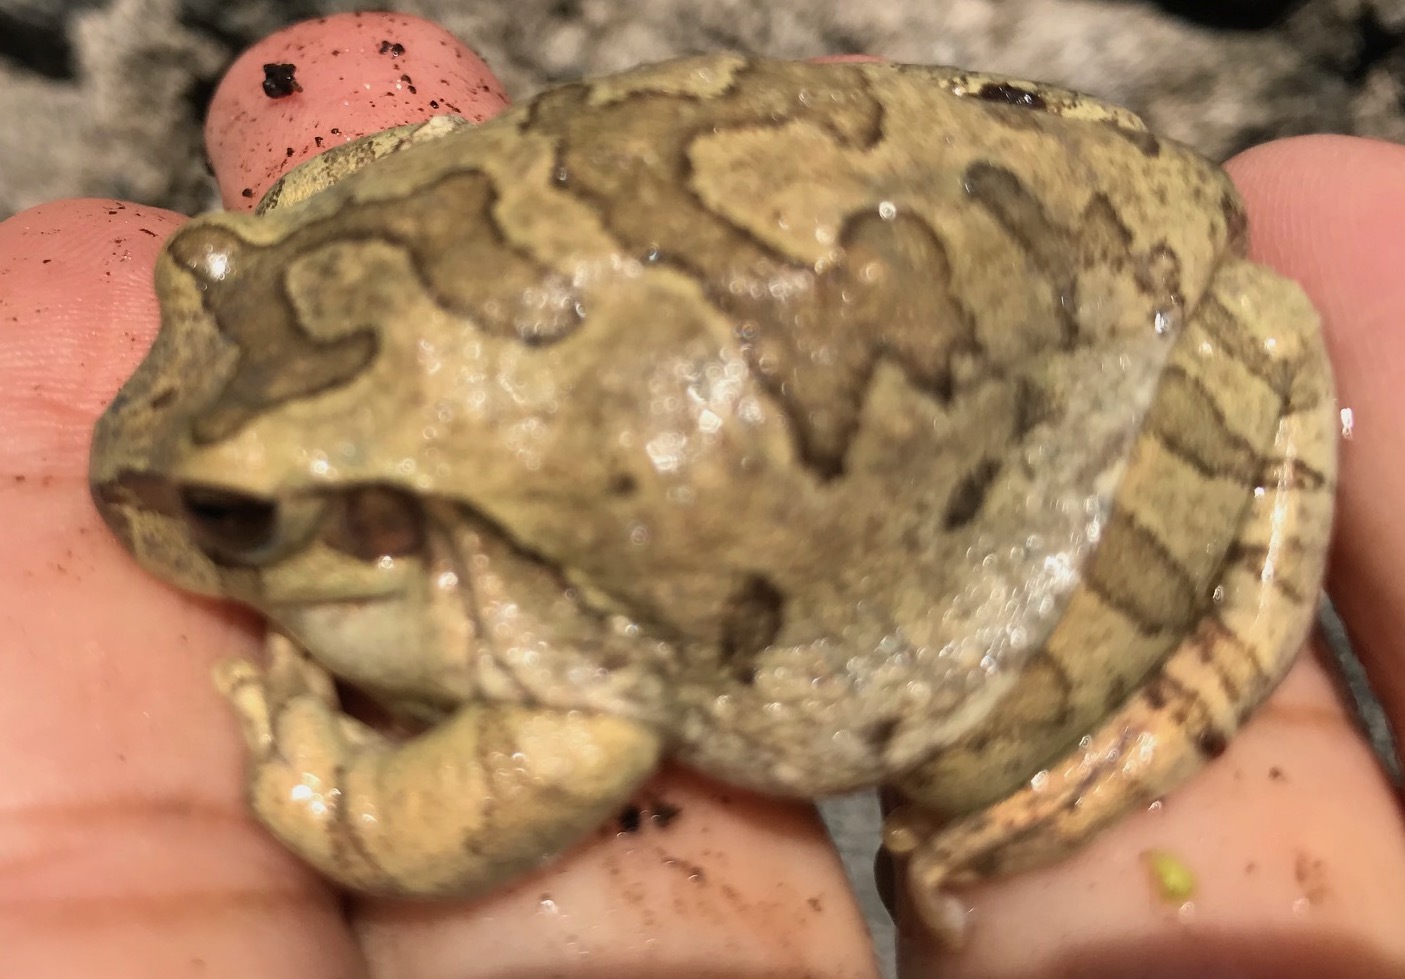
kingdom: Animalia
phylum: Chordata
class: Amphibia
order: Anura
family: Hylidae
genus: Smilisca
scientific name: Smilisca baudinii
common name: Mexican smilisca
